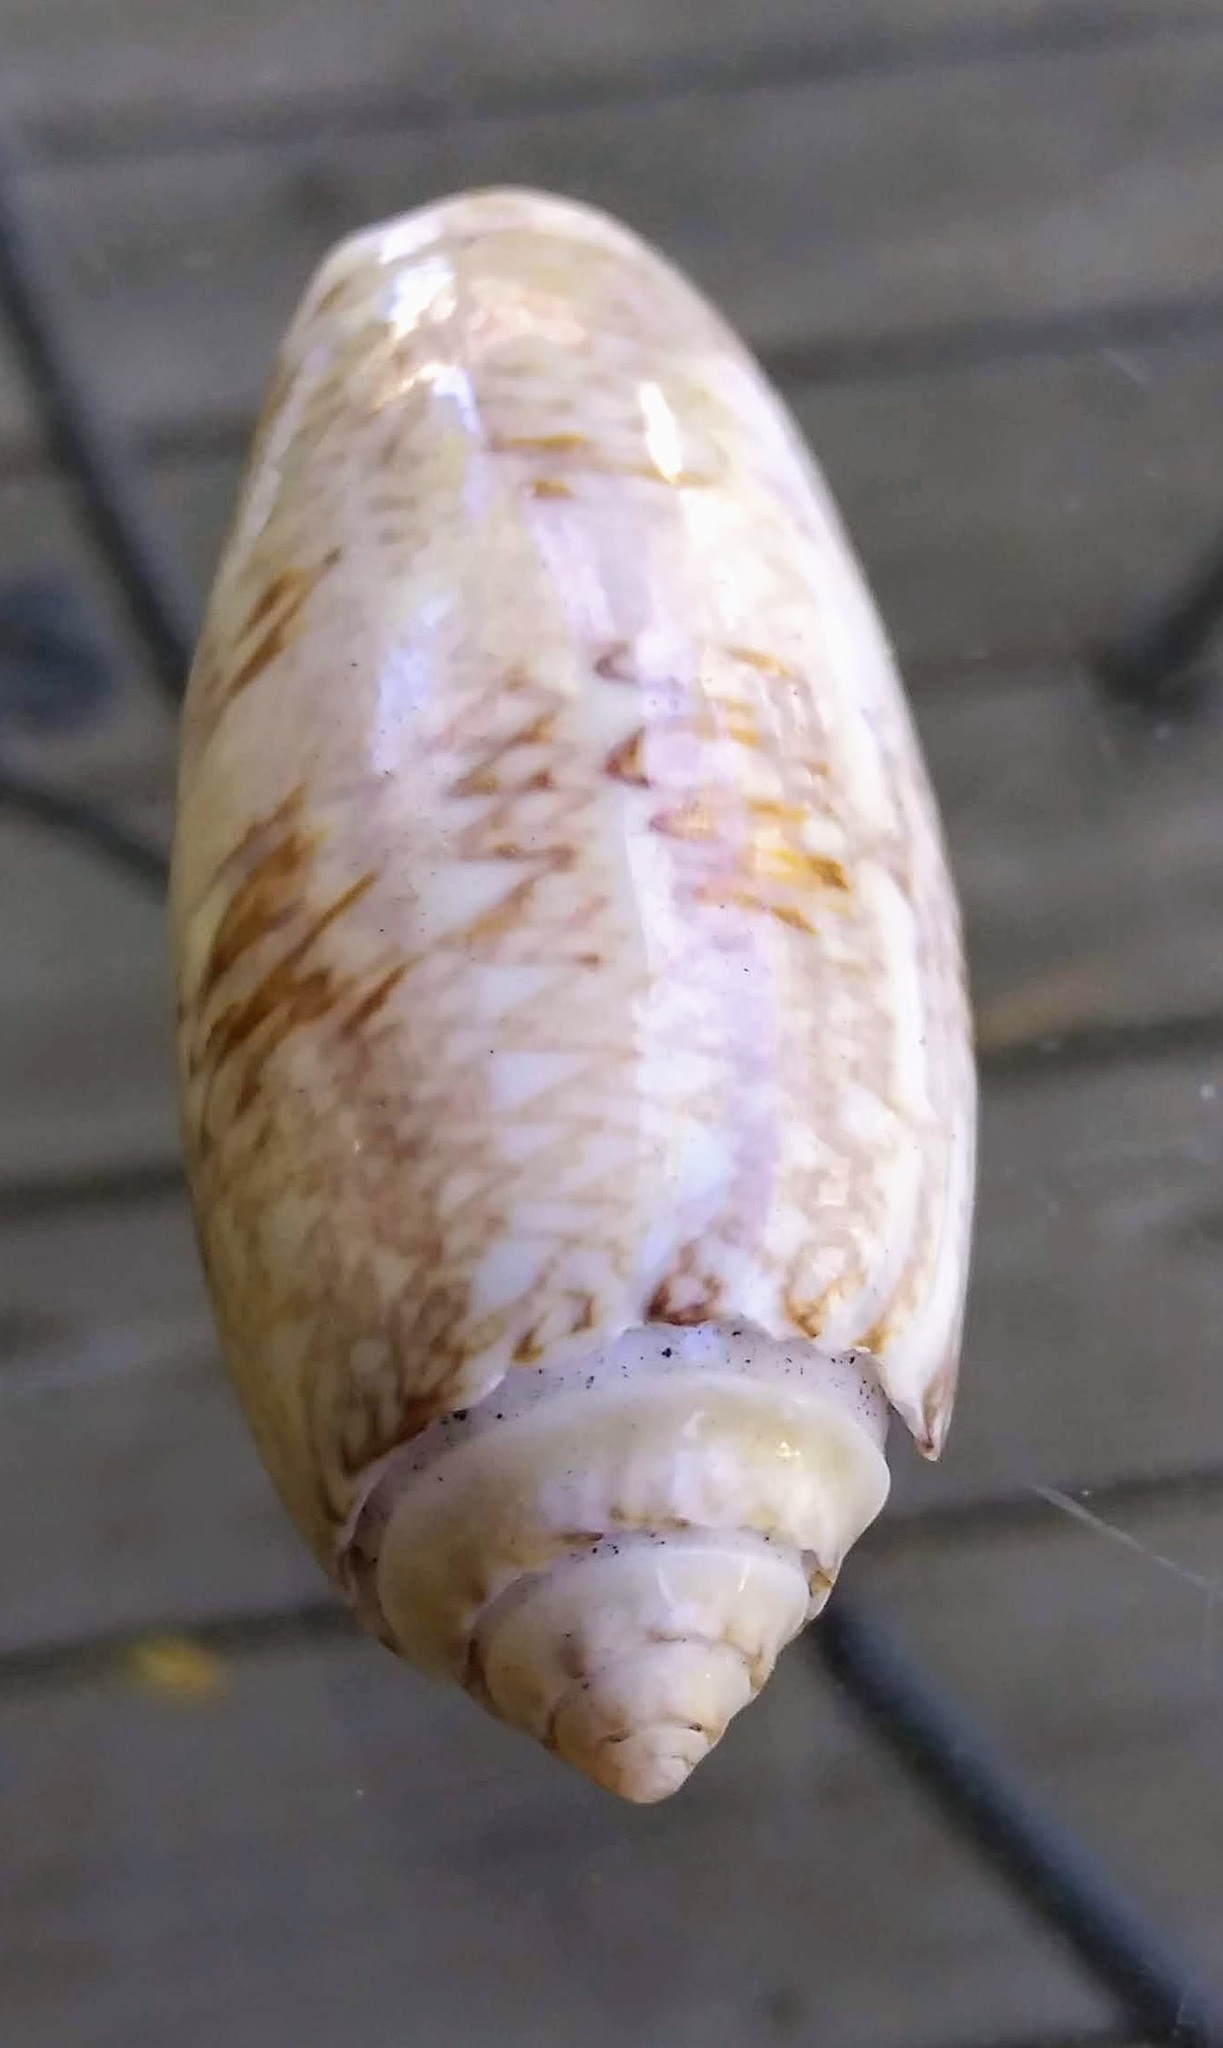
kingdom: Animalia
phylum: Mollusca
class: Gastropoda
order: Neogastropoda
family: Olividae
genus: Oliva
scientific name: Oliva sayana
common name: Lettered olive
